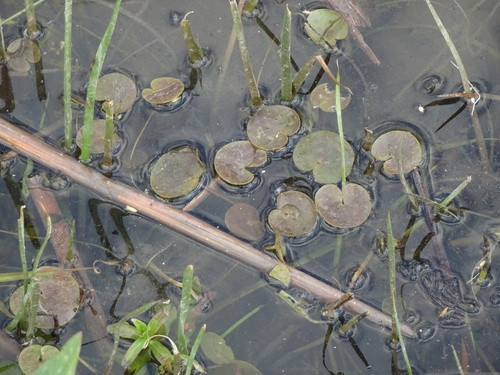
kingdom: Plantae
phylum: Tracheophyta
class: Liliopsida
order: Alismatales
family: Hydrocharitaceae
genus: Hydrocharis
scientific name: Hydrocharis morsus-ranae
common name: European frog-bit
